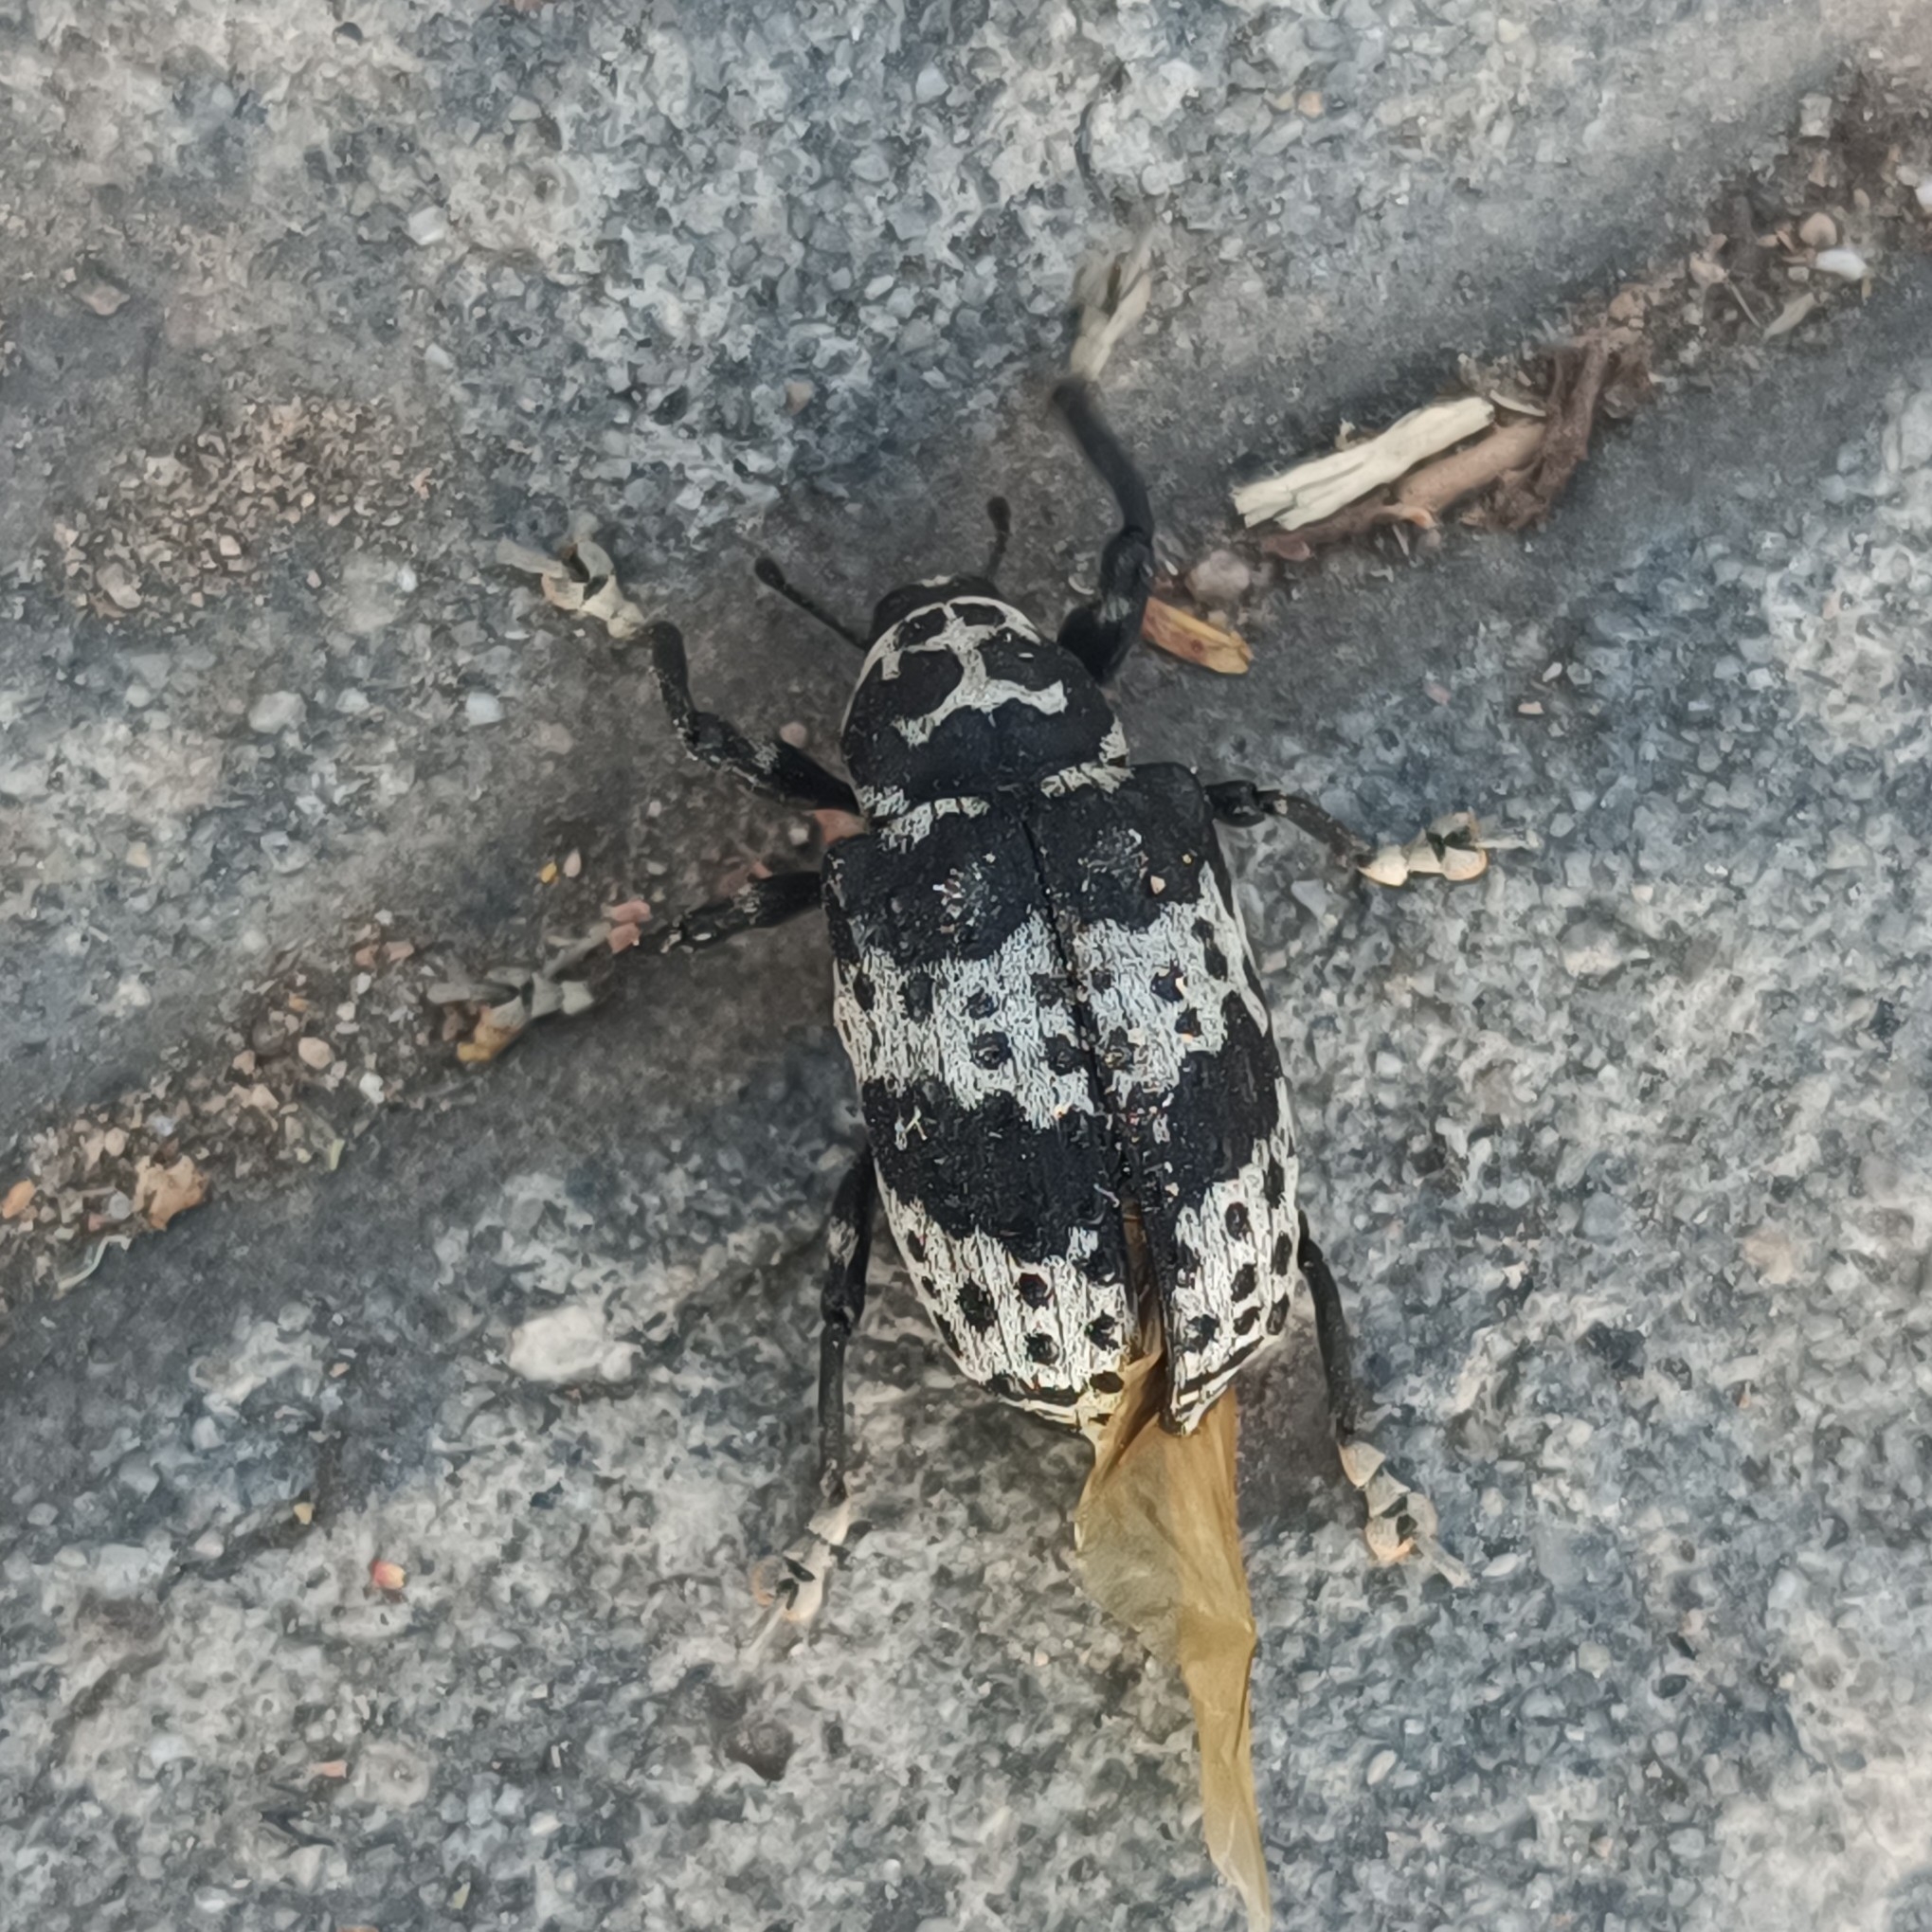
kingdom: Animalia
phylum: Arthropoda
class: Insecta
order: Coleoptera
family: Curculionidae
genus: Cratosomus
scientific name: Cratosomus punctulatus
